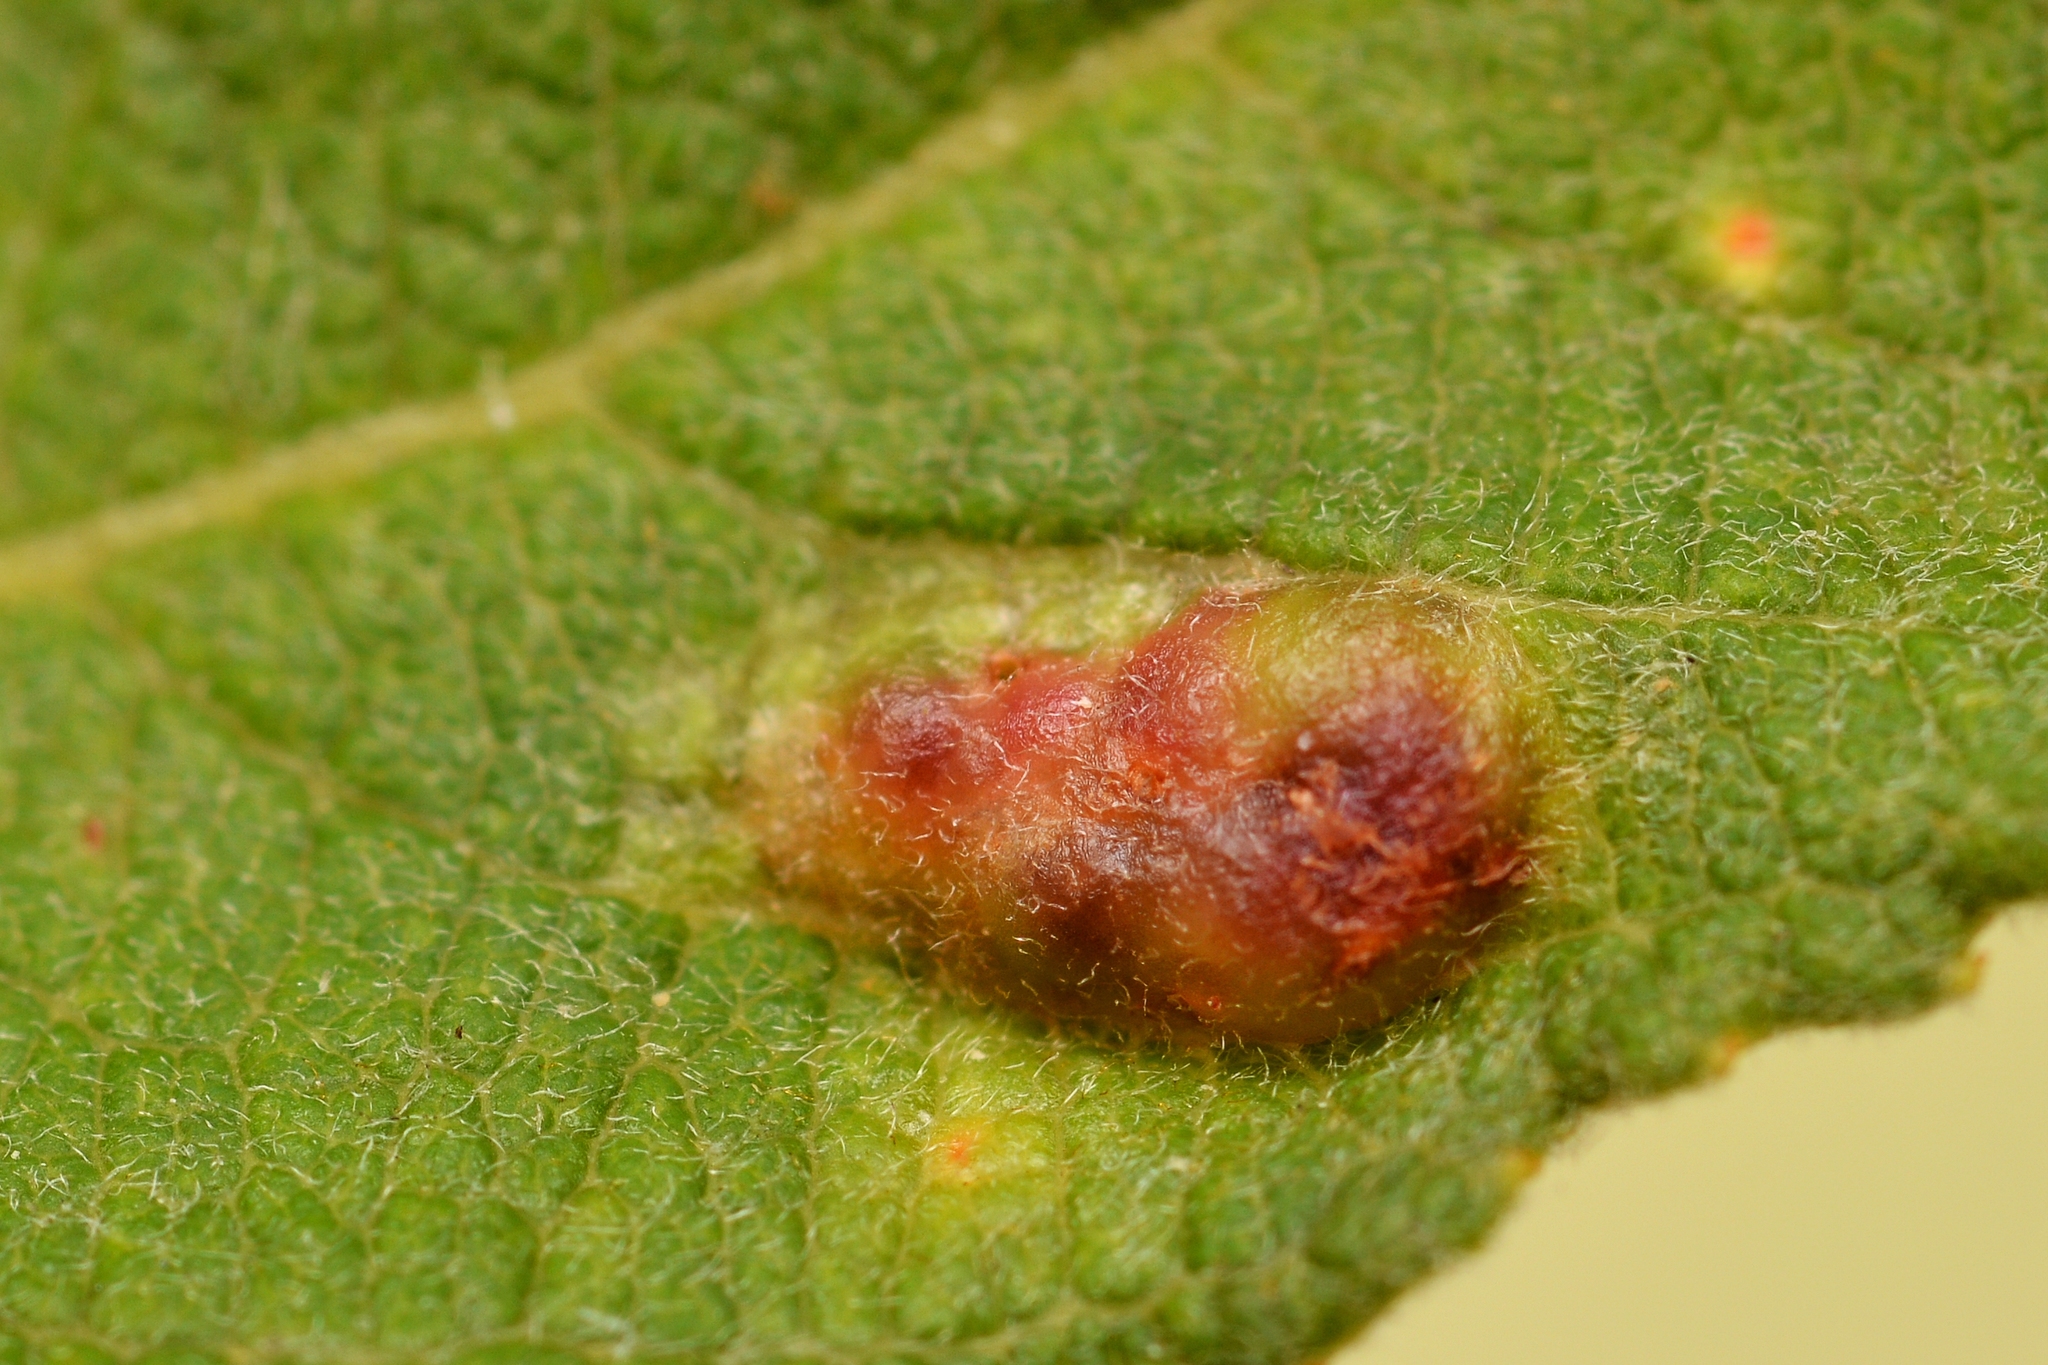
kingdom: Animalia
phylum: Arthropoda
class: Insecta
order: Hymenoptera
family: Tenthredinidae
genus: Pontania
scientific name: Pontania bridgmanii
